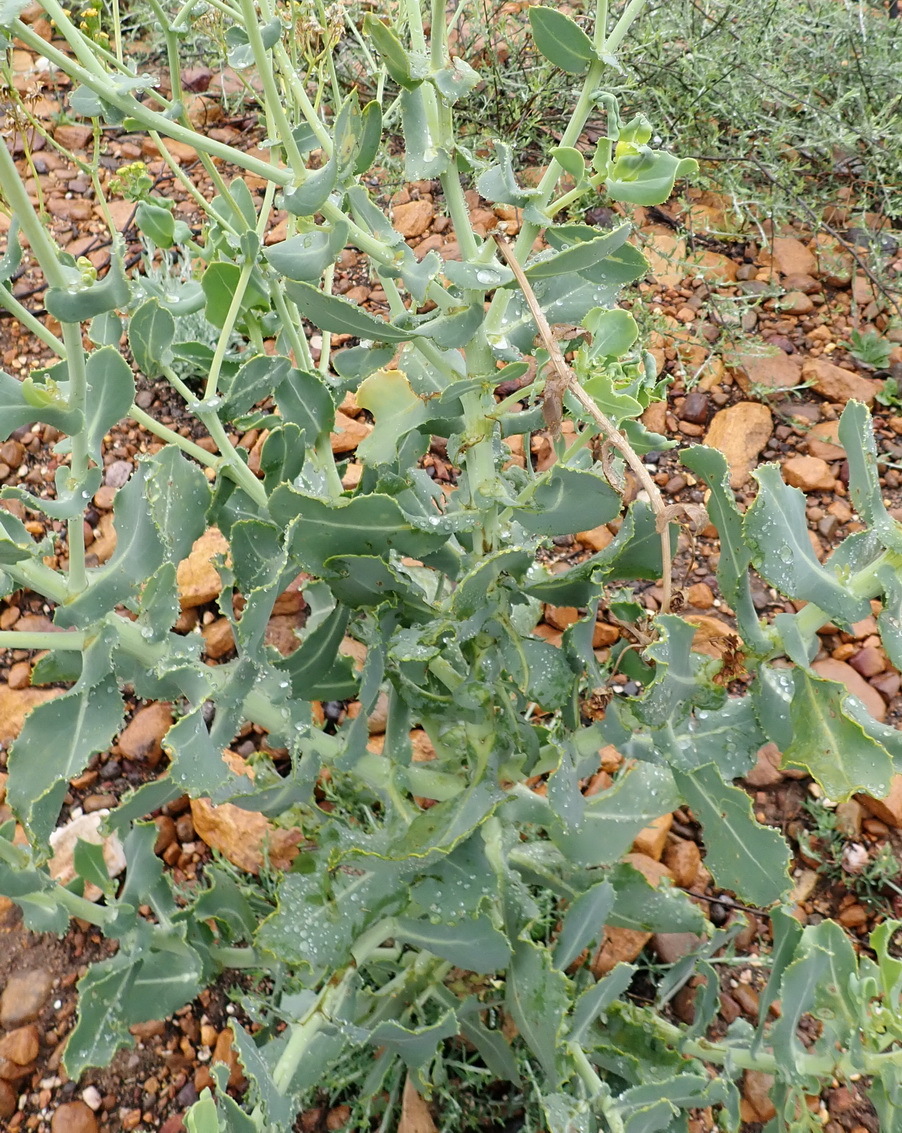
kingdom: Plantae
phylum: Tracheophyta
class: Magnoliopsida
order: Asterales
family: Asteraceae
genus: Othonna
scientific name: Othonna parviflora
